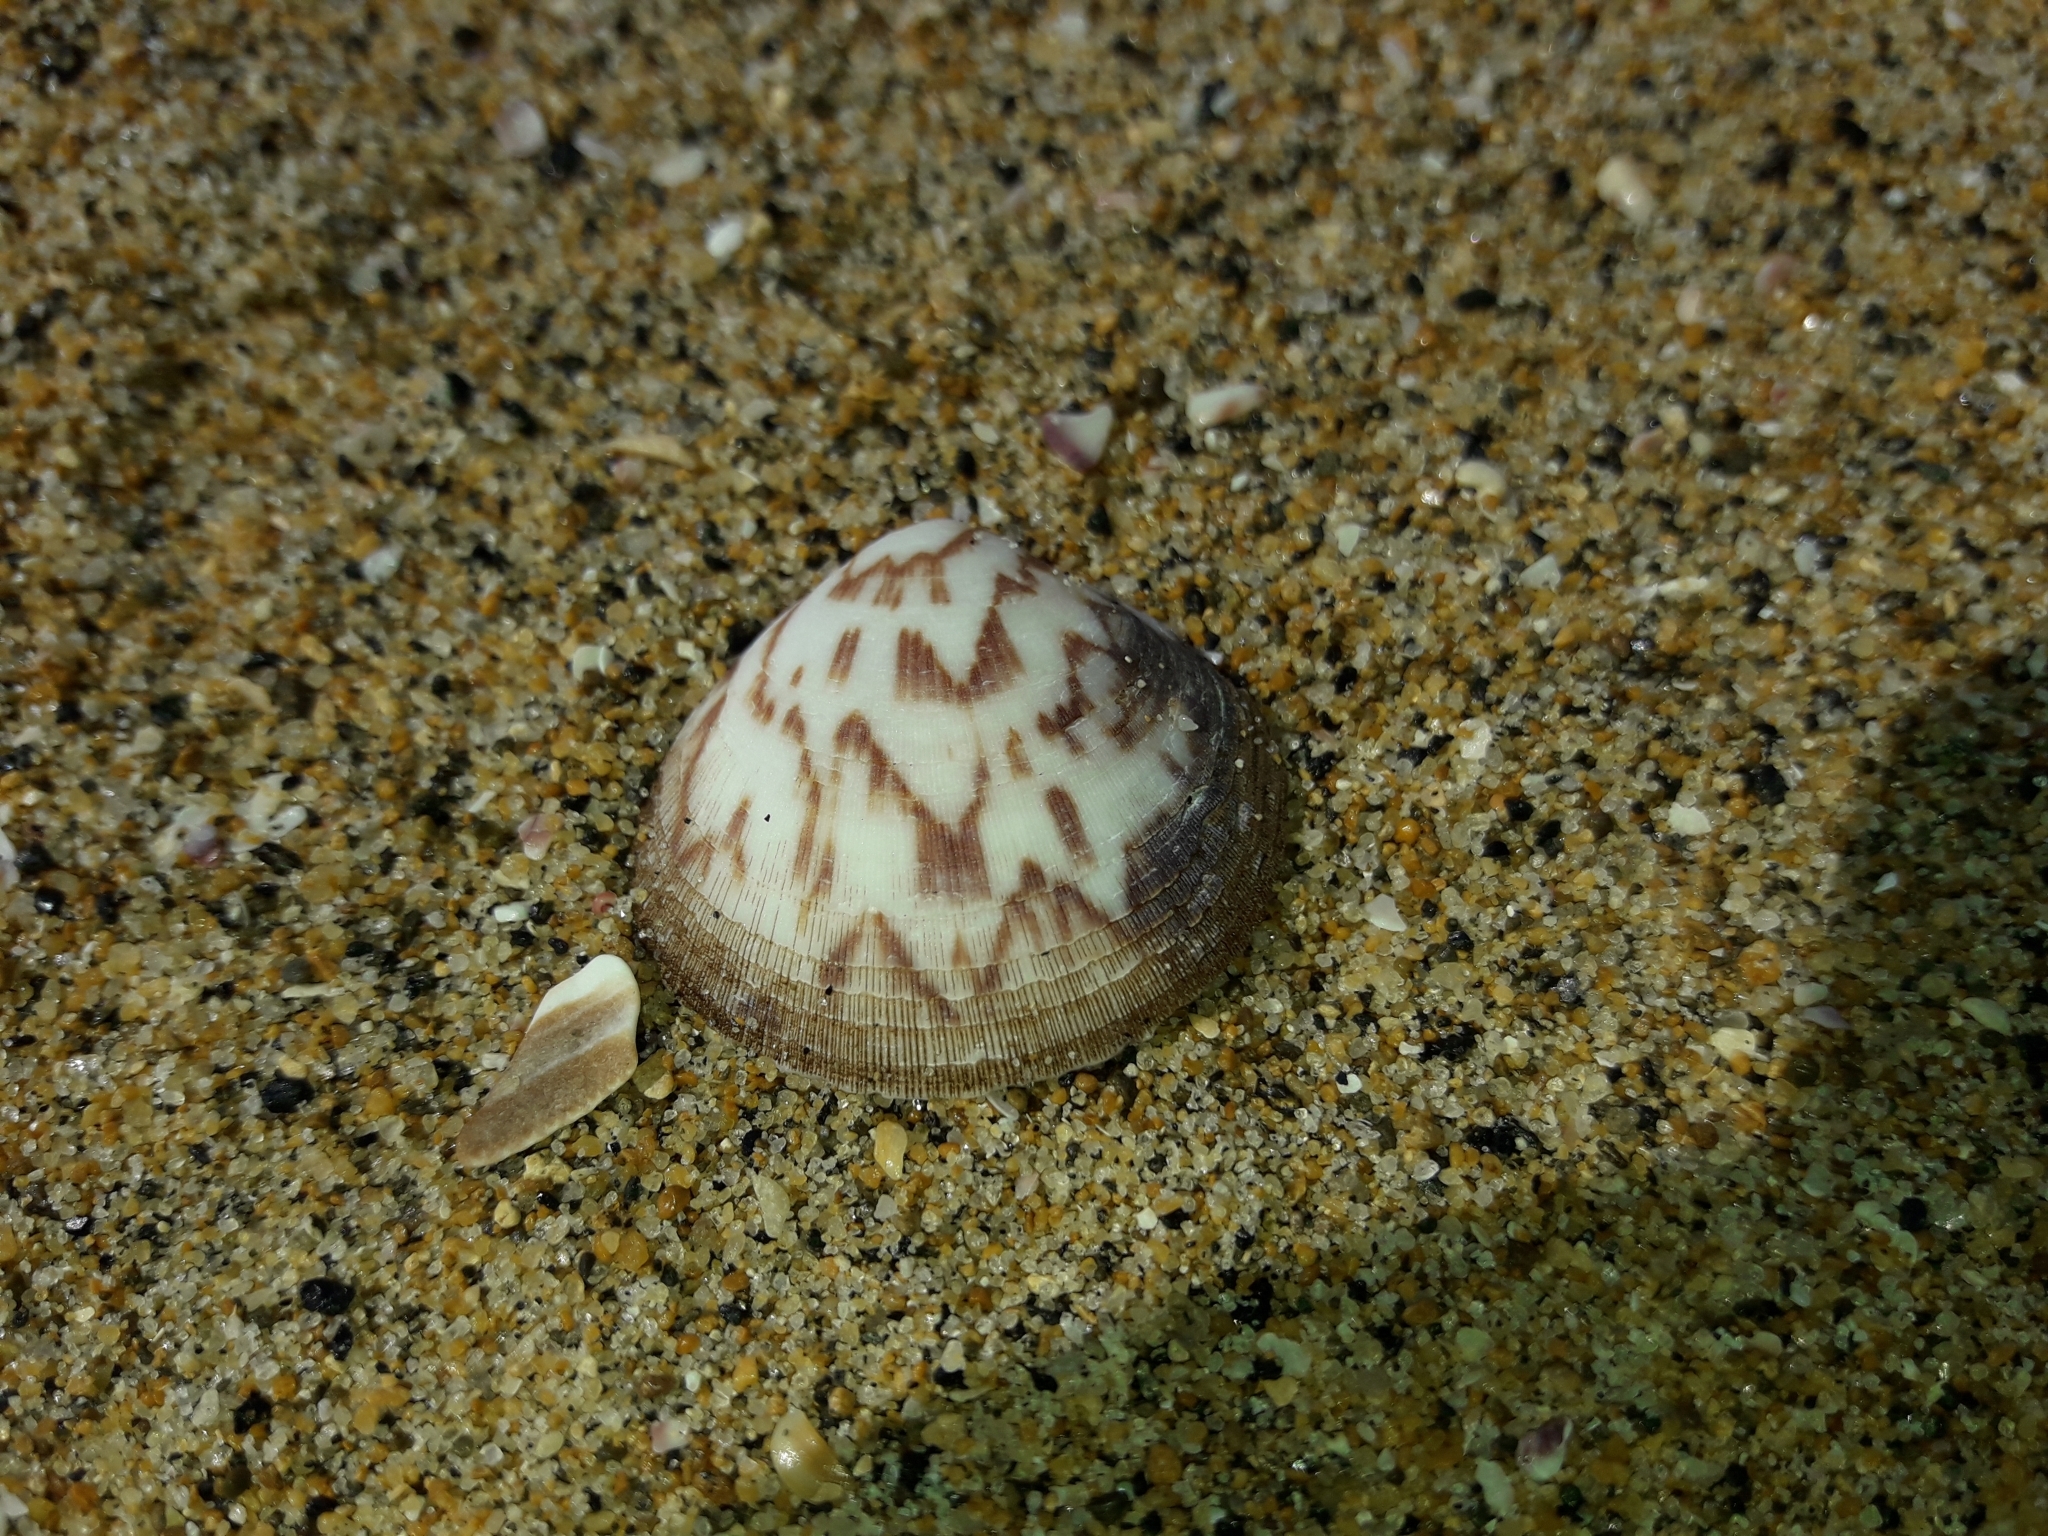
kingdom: Animalia
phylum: Mollusca
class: Bivalvia
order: Arcida
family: Glycymerididae
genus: Glycymeris
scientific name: Glycymeris modesta
